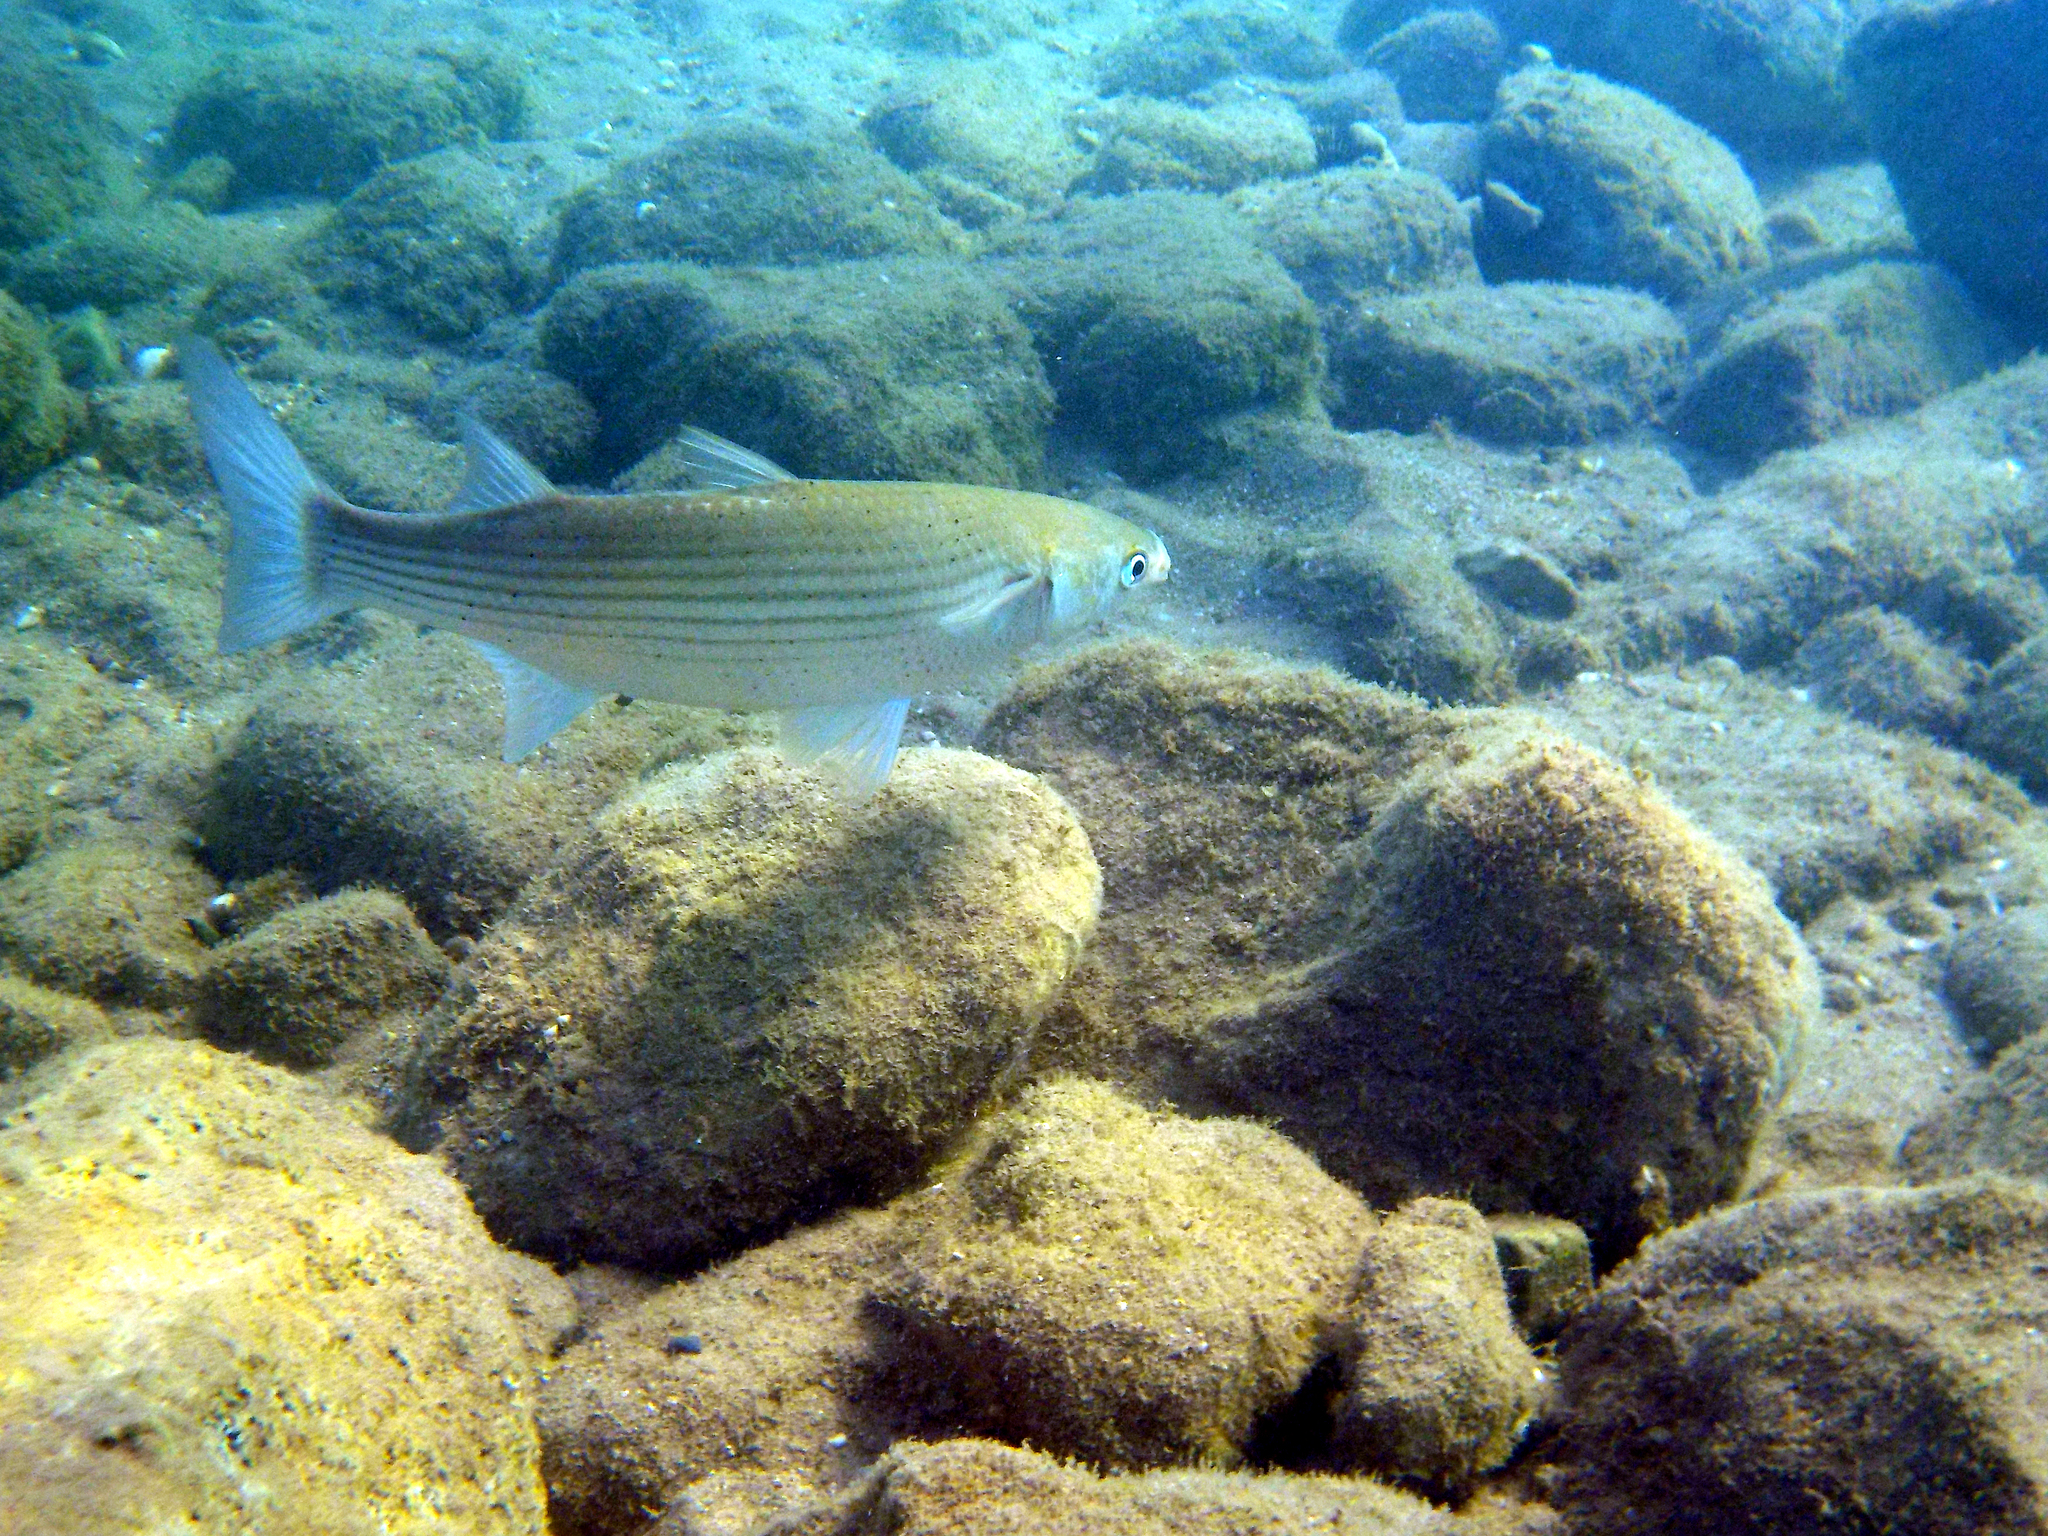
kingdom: Animalia
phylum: Chordata
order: Mugiliformes
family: Mugilidae
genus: Chelon
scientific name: Chelon
